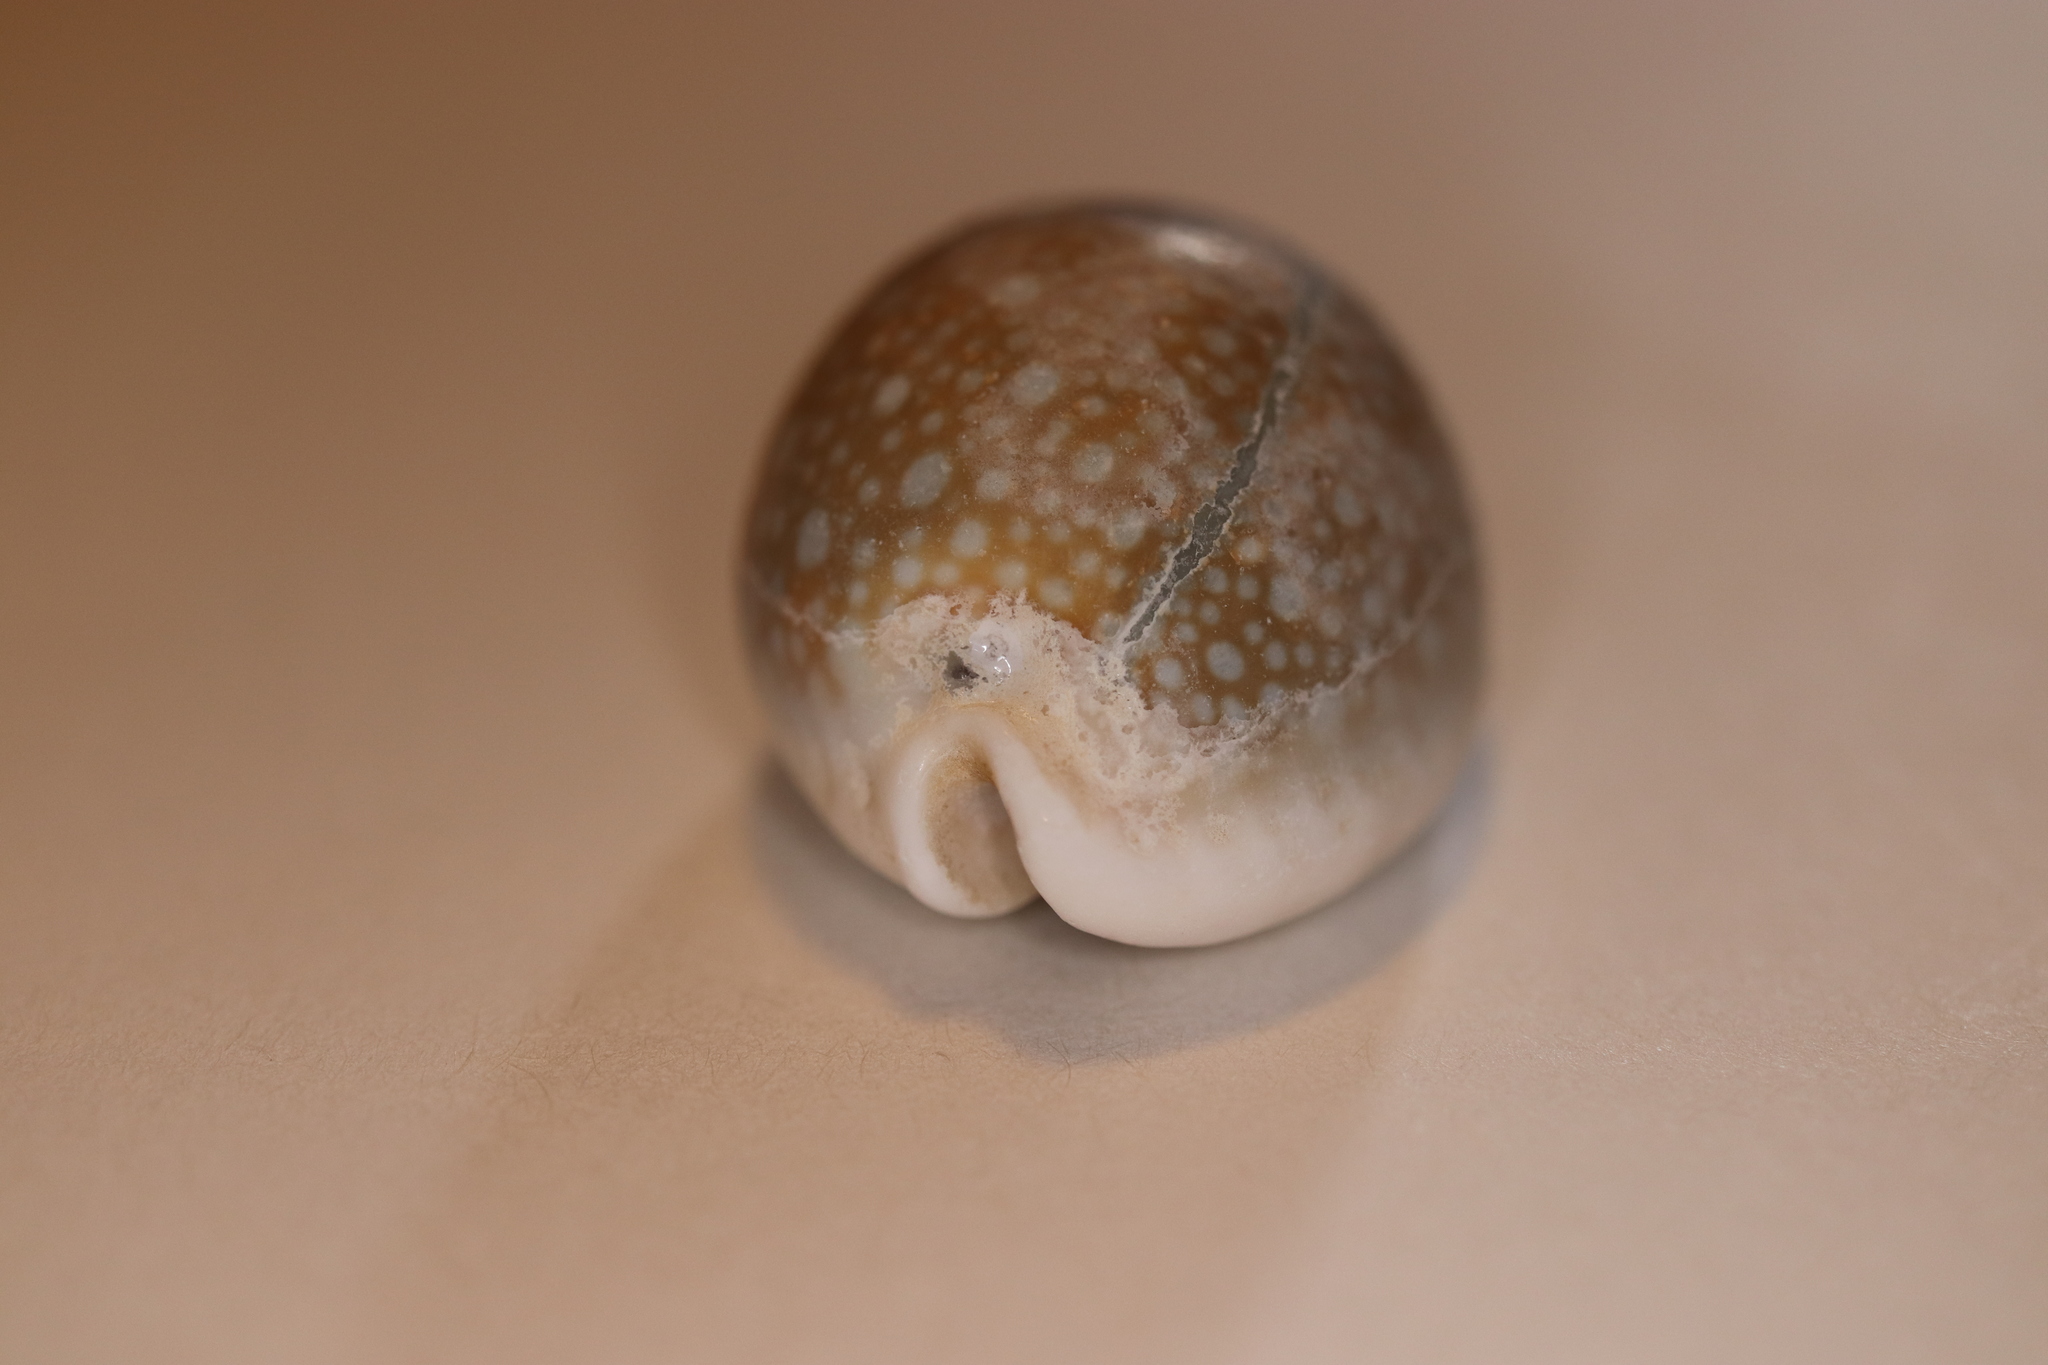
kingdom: Animalia
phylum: Mollusca
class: Gastropoda
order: Littorinimorpha
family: Cypraeidae
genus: Naria
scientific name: Naria miliaris
